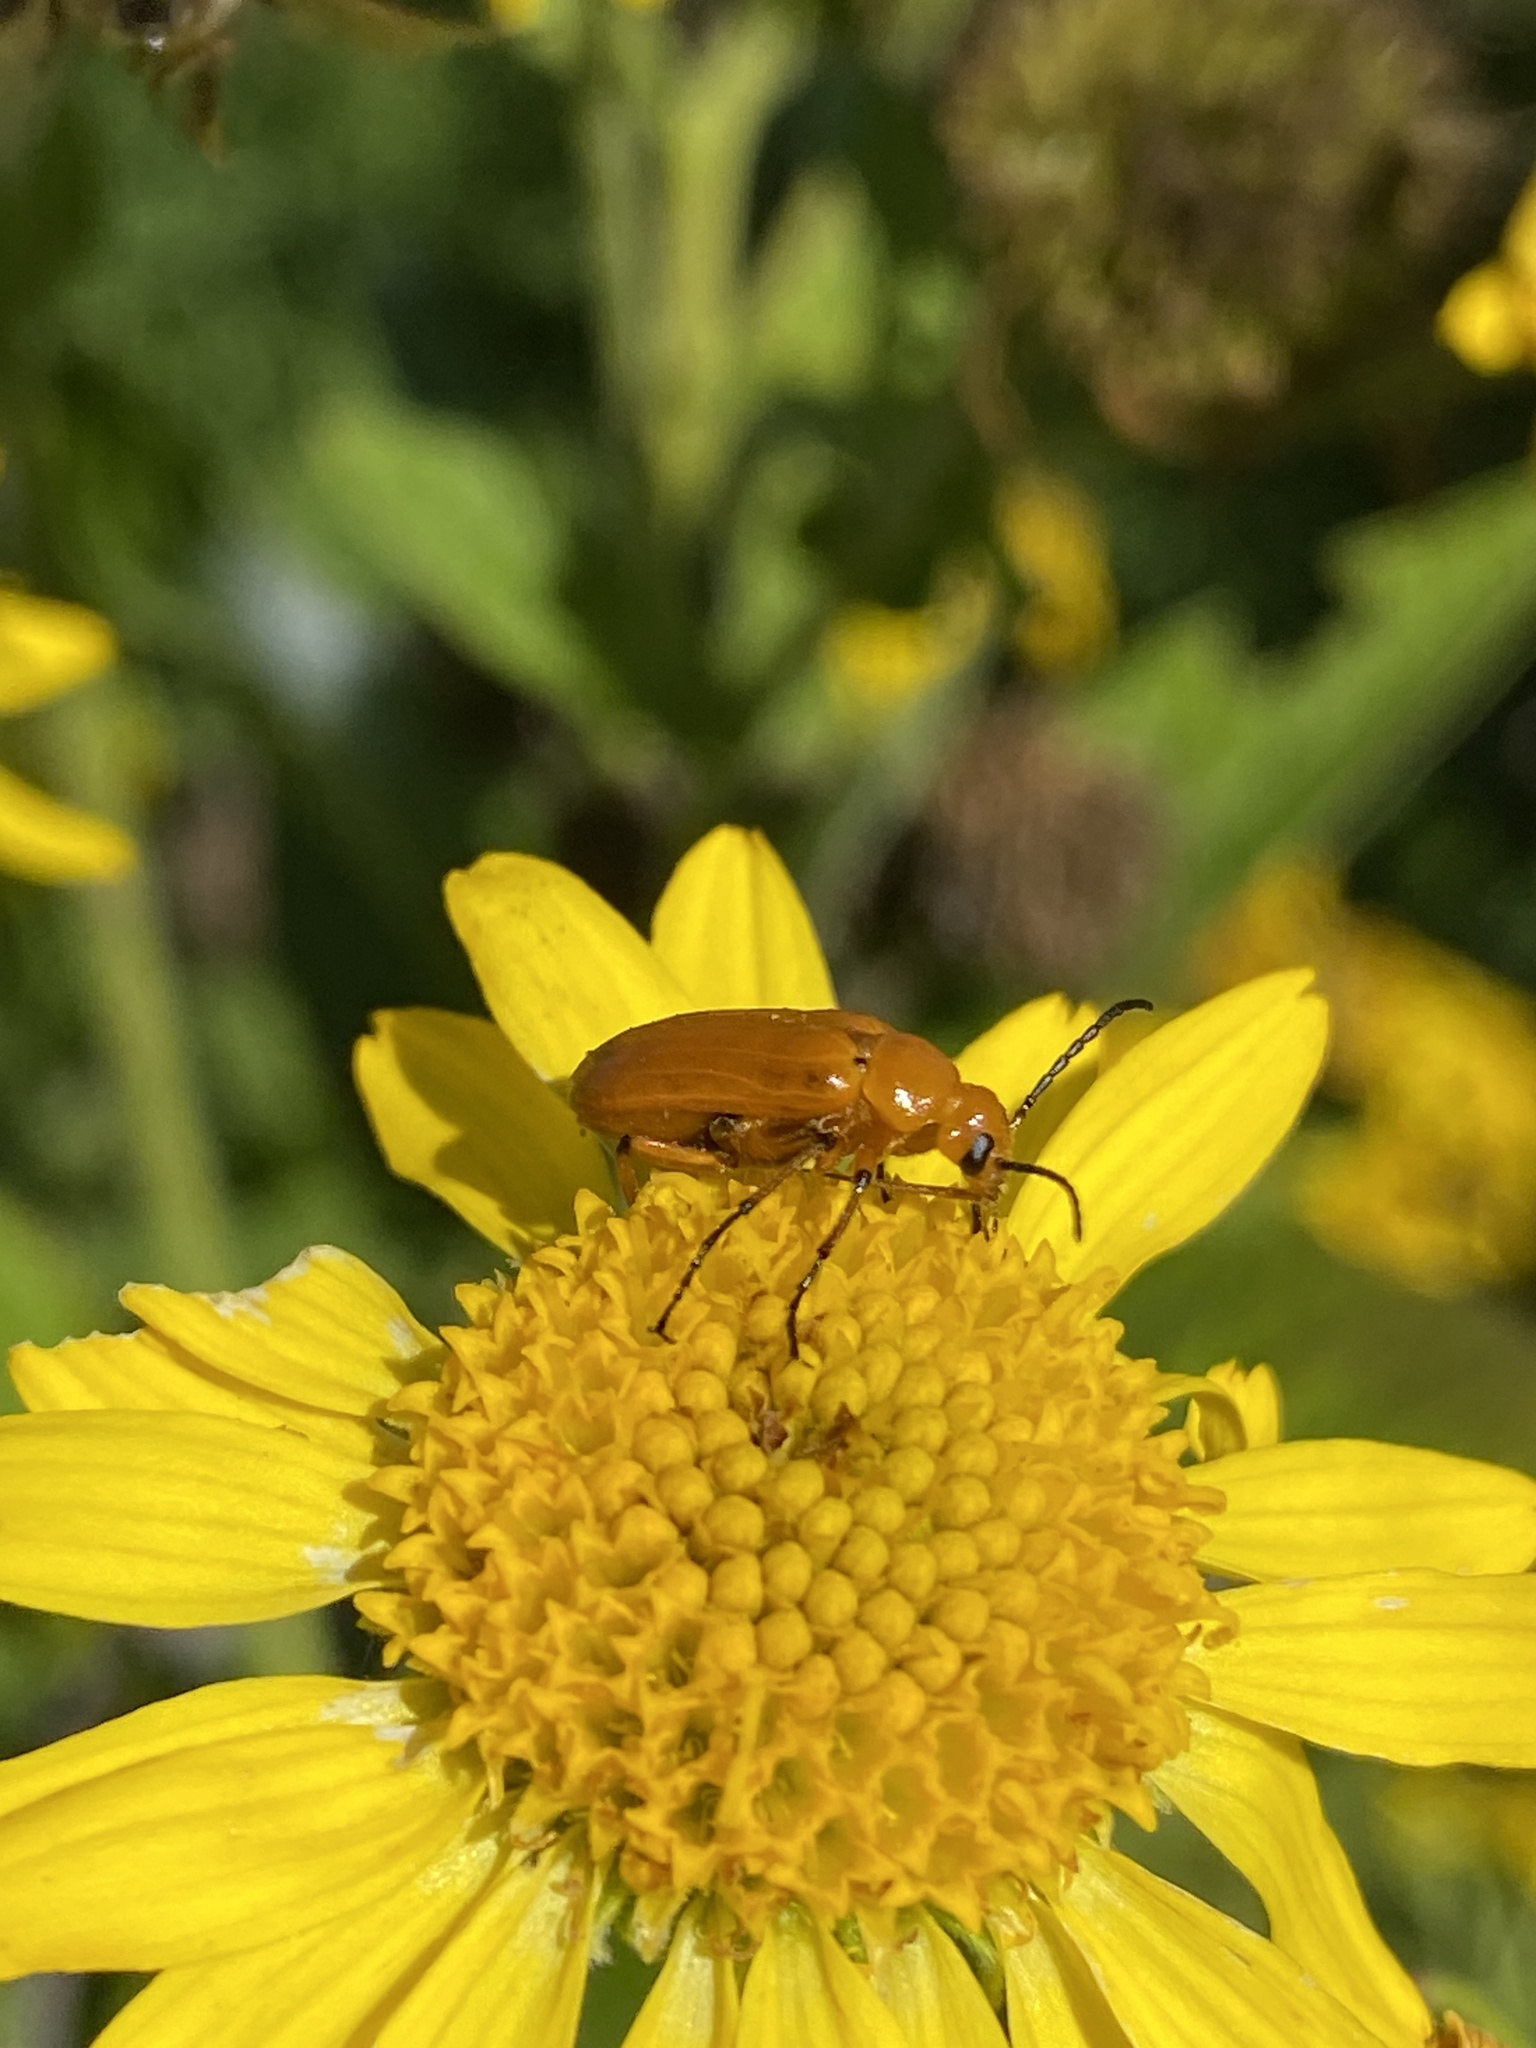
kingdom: Animalia
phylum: Arthropoda
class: Insecta
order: Coleoptera
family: Meloidae
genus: Nemognatha
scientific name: Nemognatha
